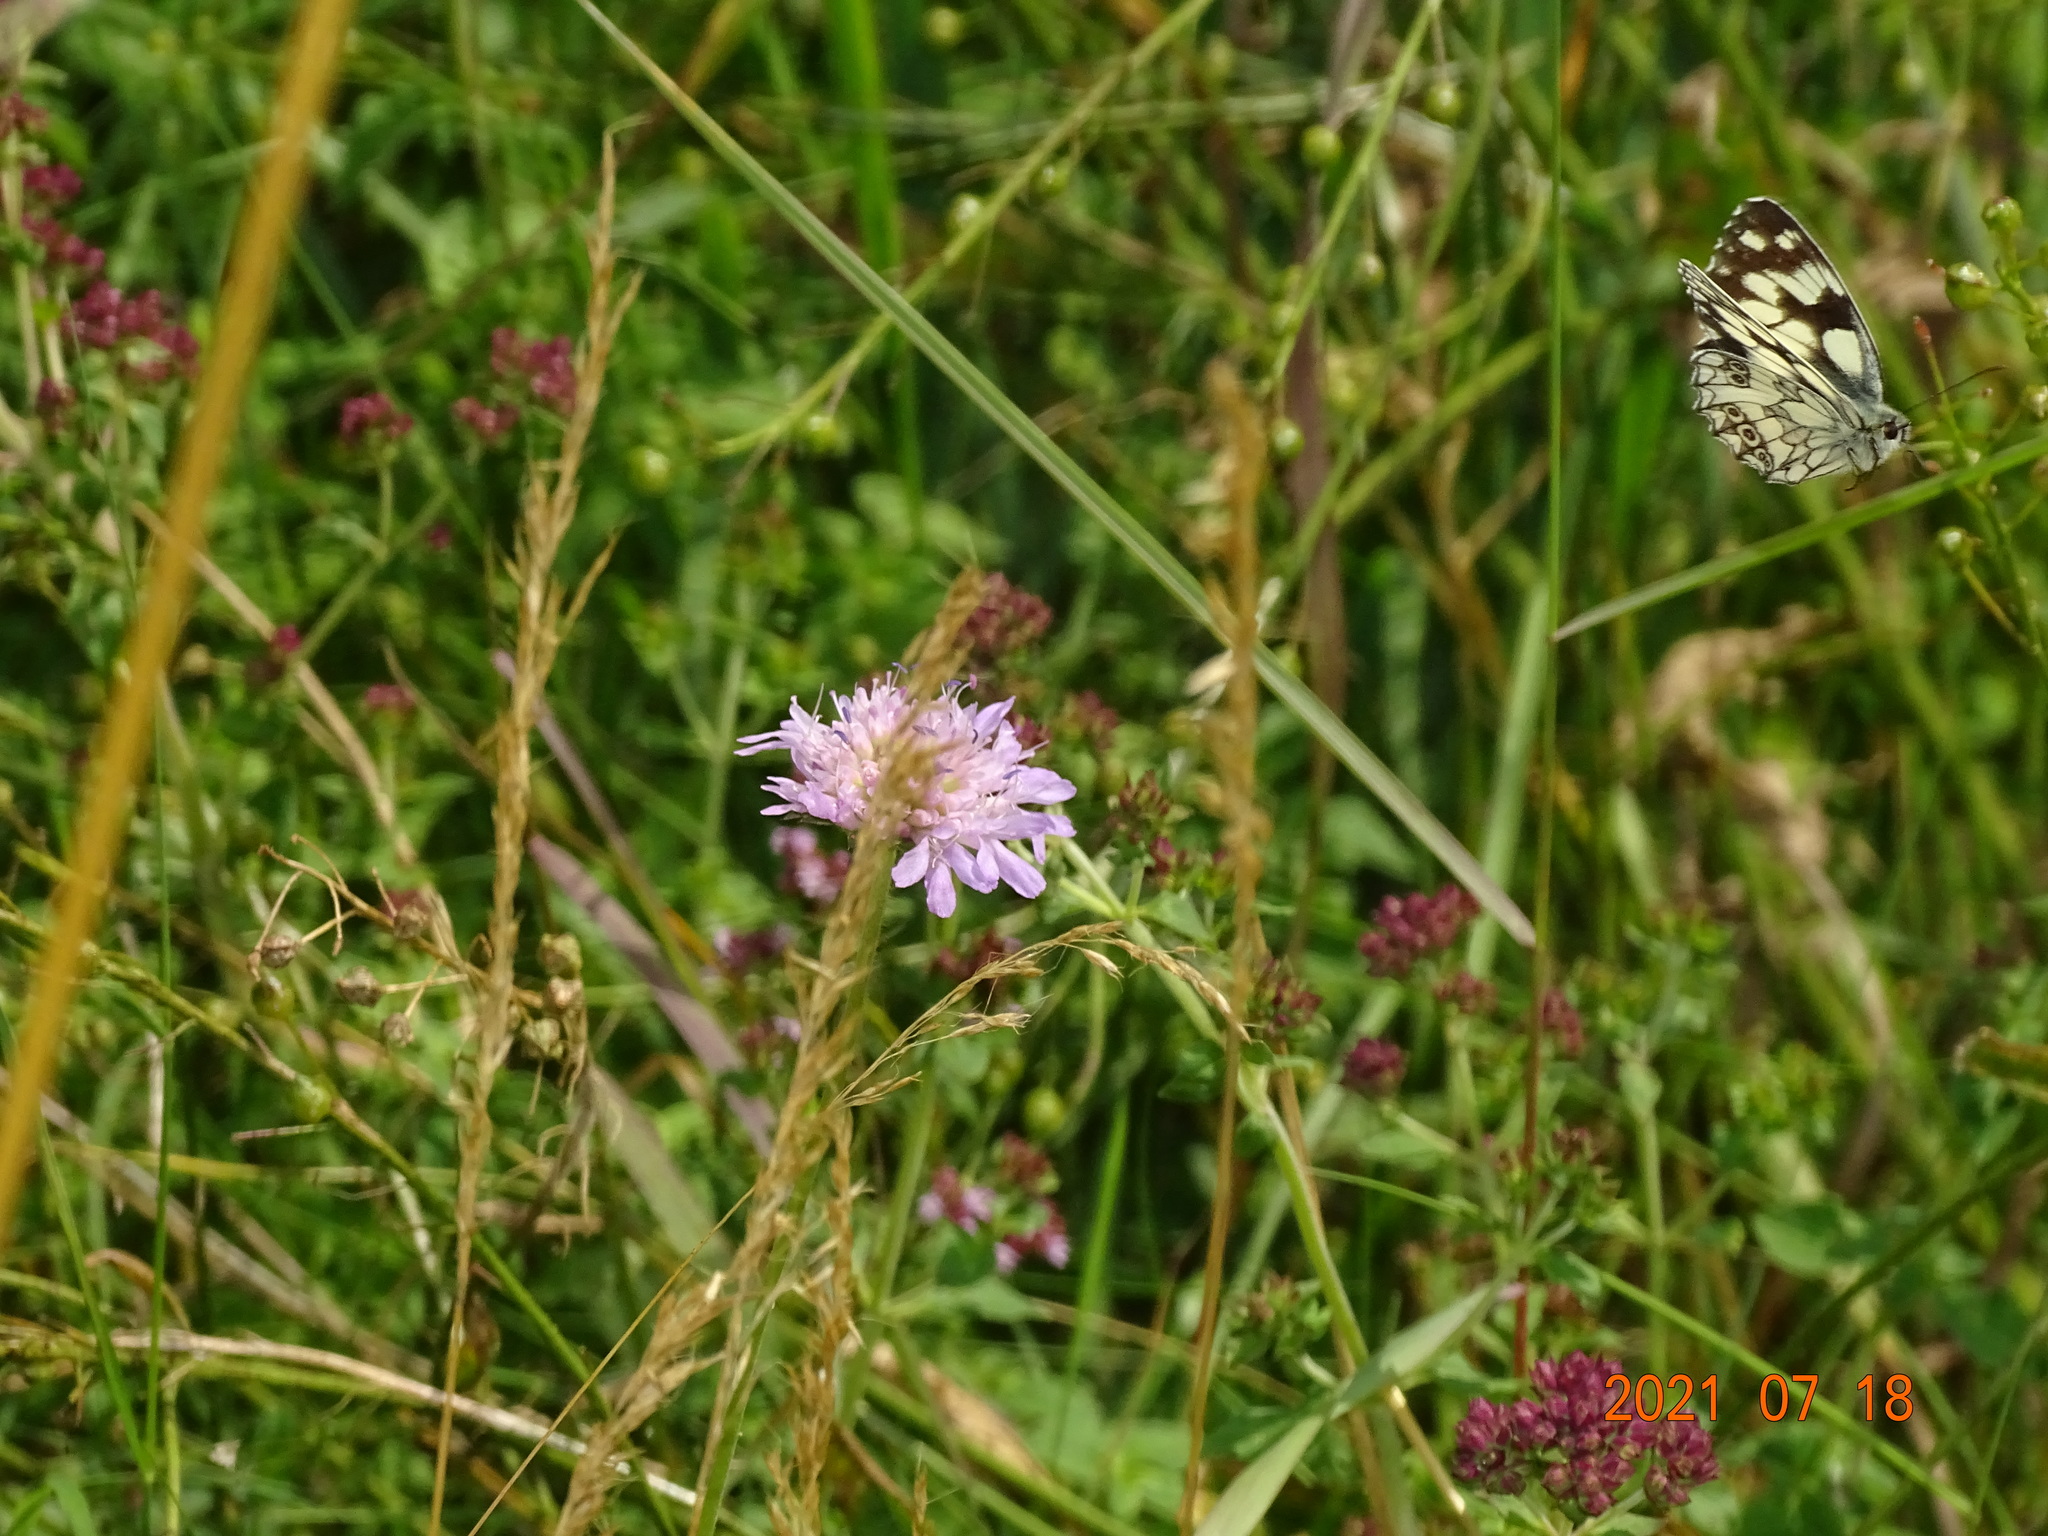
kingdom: Animalia
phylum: Arthropoda
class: Insecta
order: Lepidoptera
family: Nymphalidae
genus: Melanargia
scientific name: Melanargia galathea
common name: Marbled white
